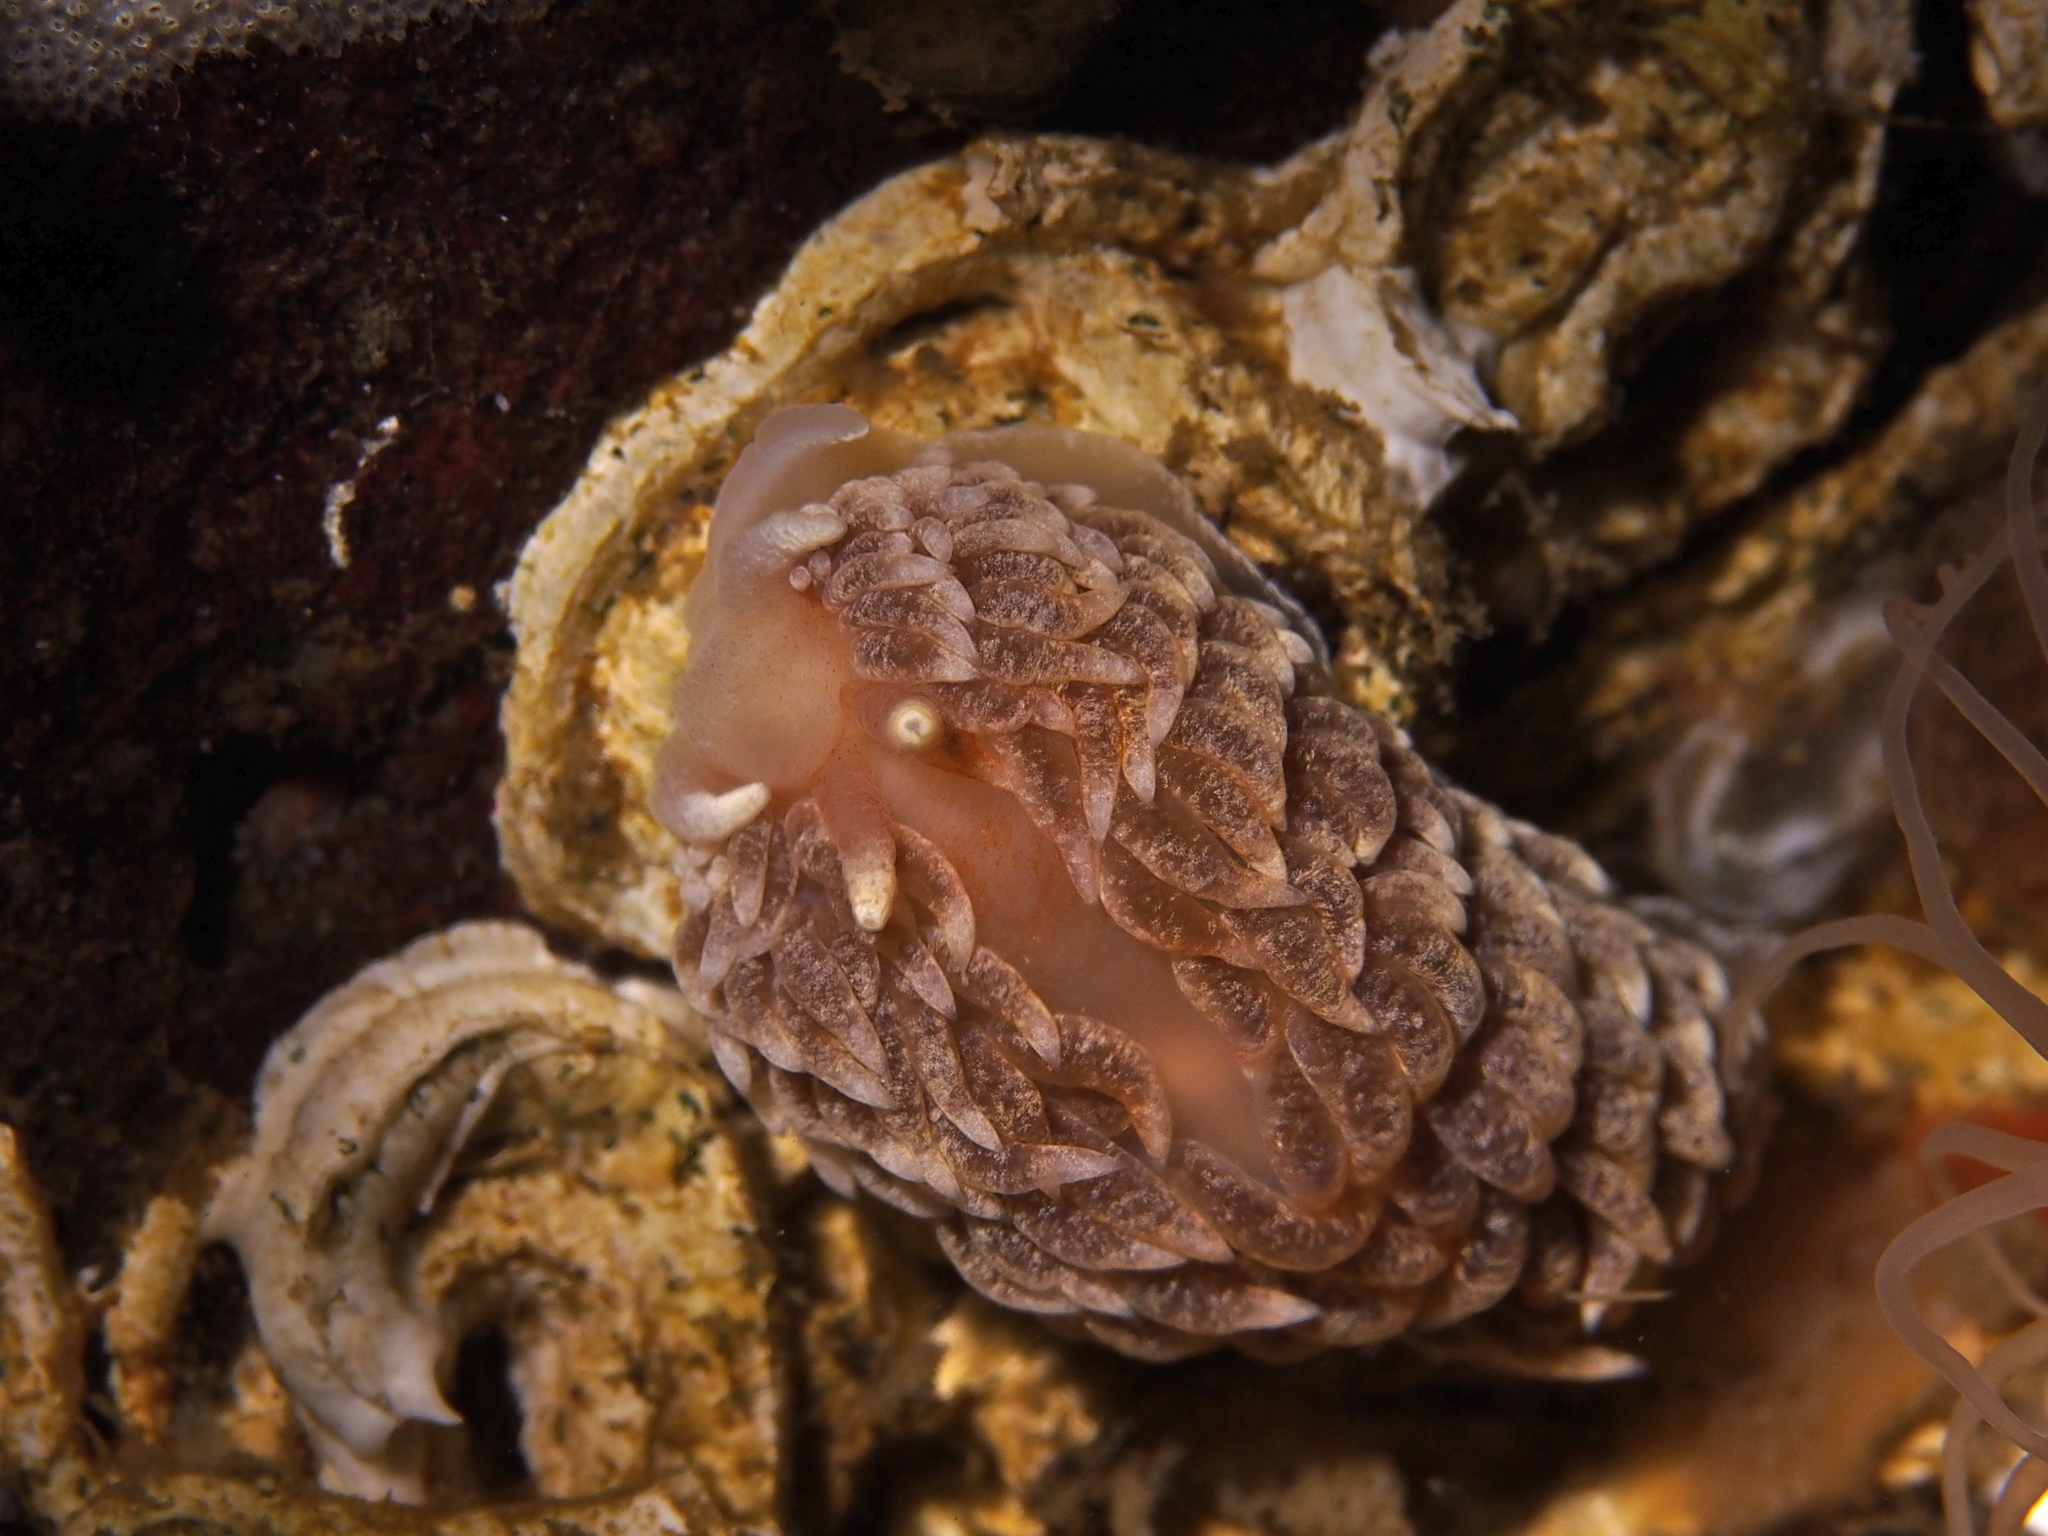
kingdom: Animalia
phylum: Mollusca
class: Gastropoda
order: Nudibranchia
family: Aeolidiidae
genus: Aeolidiella
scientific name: Aeolidiella glauca
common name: Orange-brown aeolid
